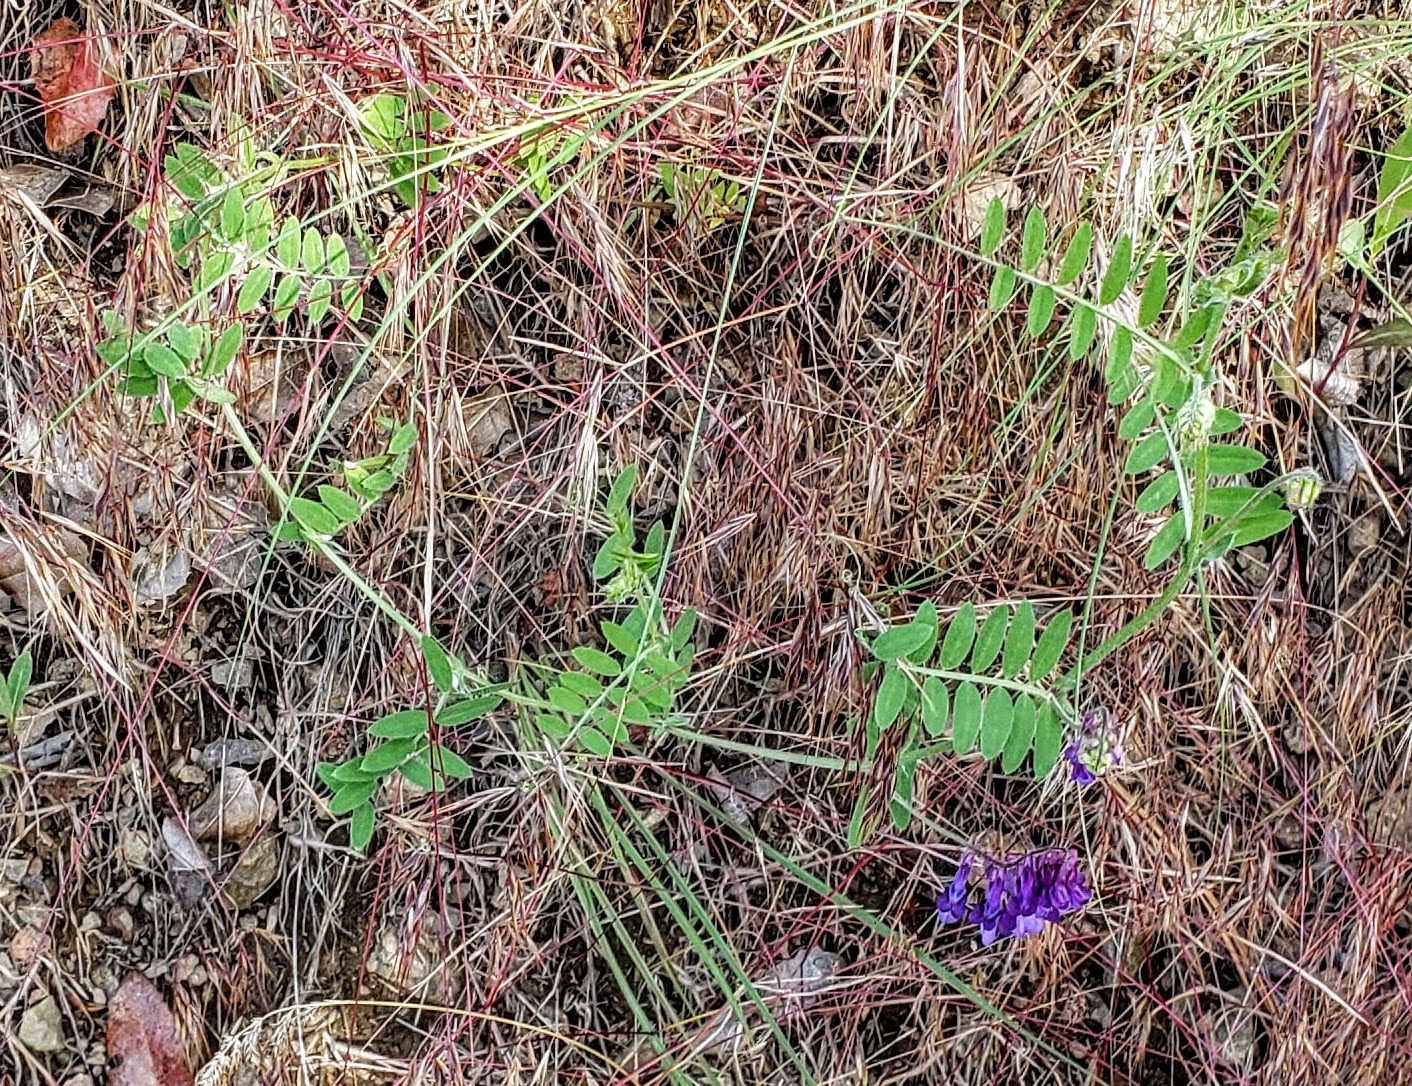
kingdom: Plantae
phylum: Tracheophyta
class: Magnoliopsida
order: Fabales
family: Fabaceae
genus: Vicia
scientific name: Vicia villosa
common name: Fodder vetch
